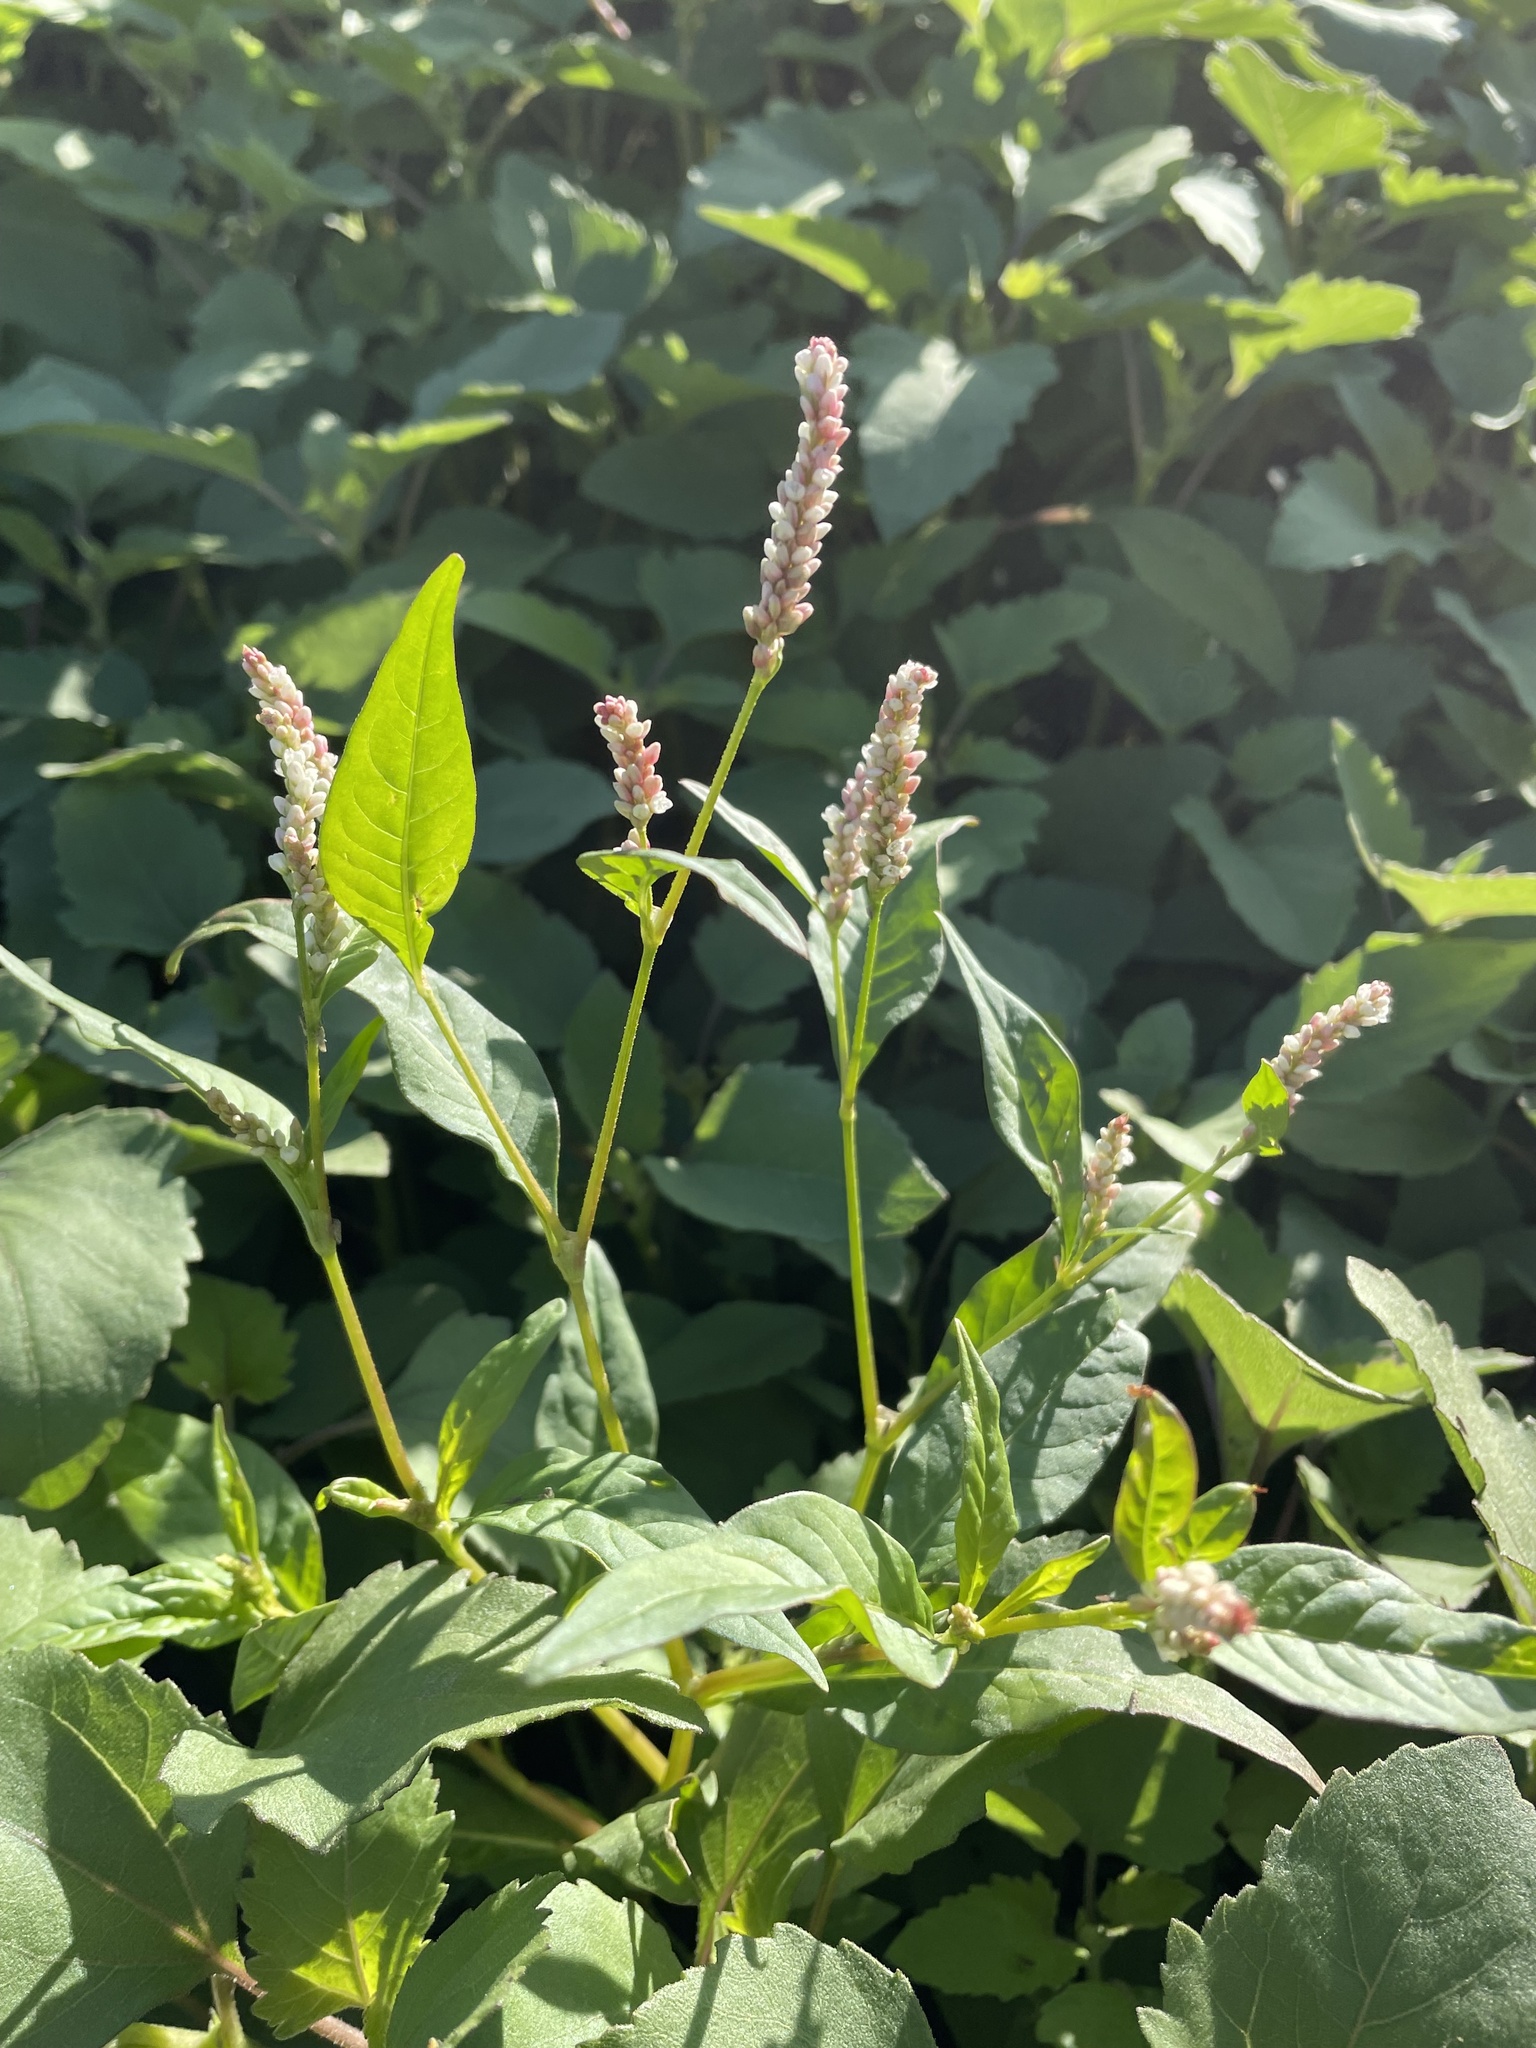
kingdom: Plantae
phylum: Tracheophyta
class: Magnoliopsida
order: Caryophyllales
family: Polygonaceae
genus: Persicaria
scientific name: Persicaria pensylvanica
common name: Pinkweed
